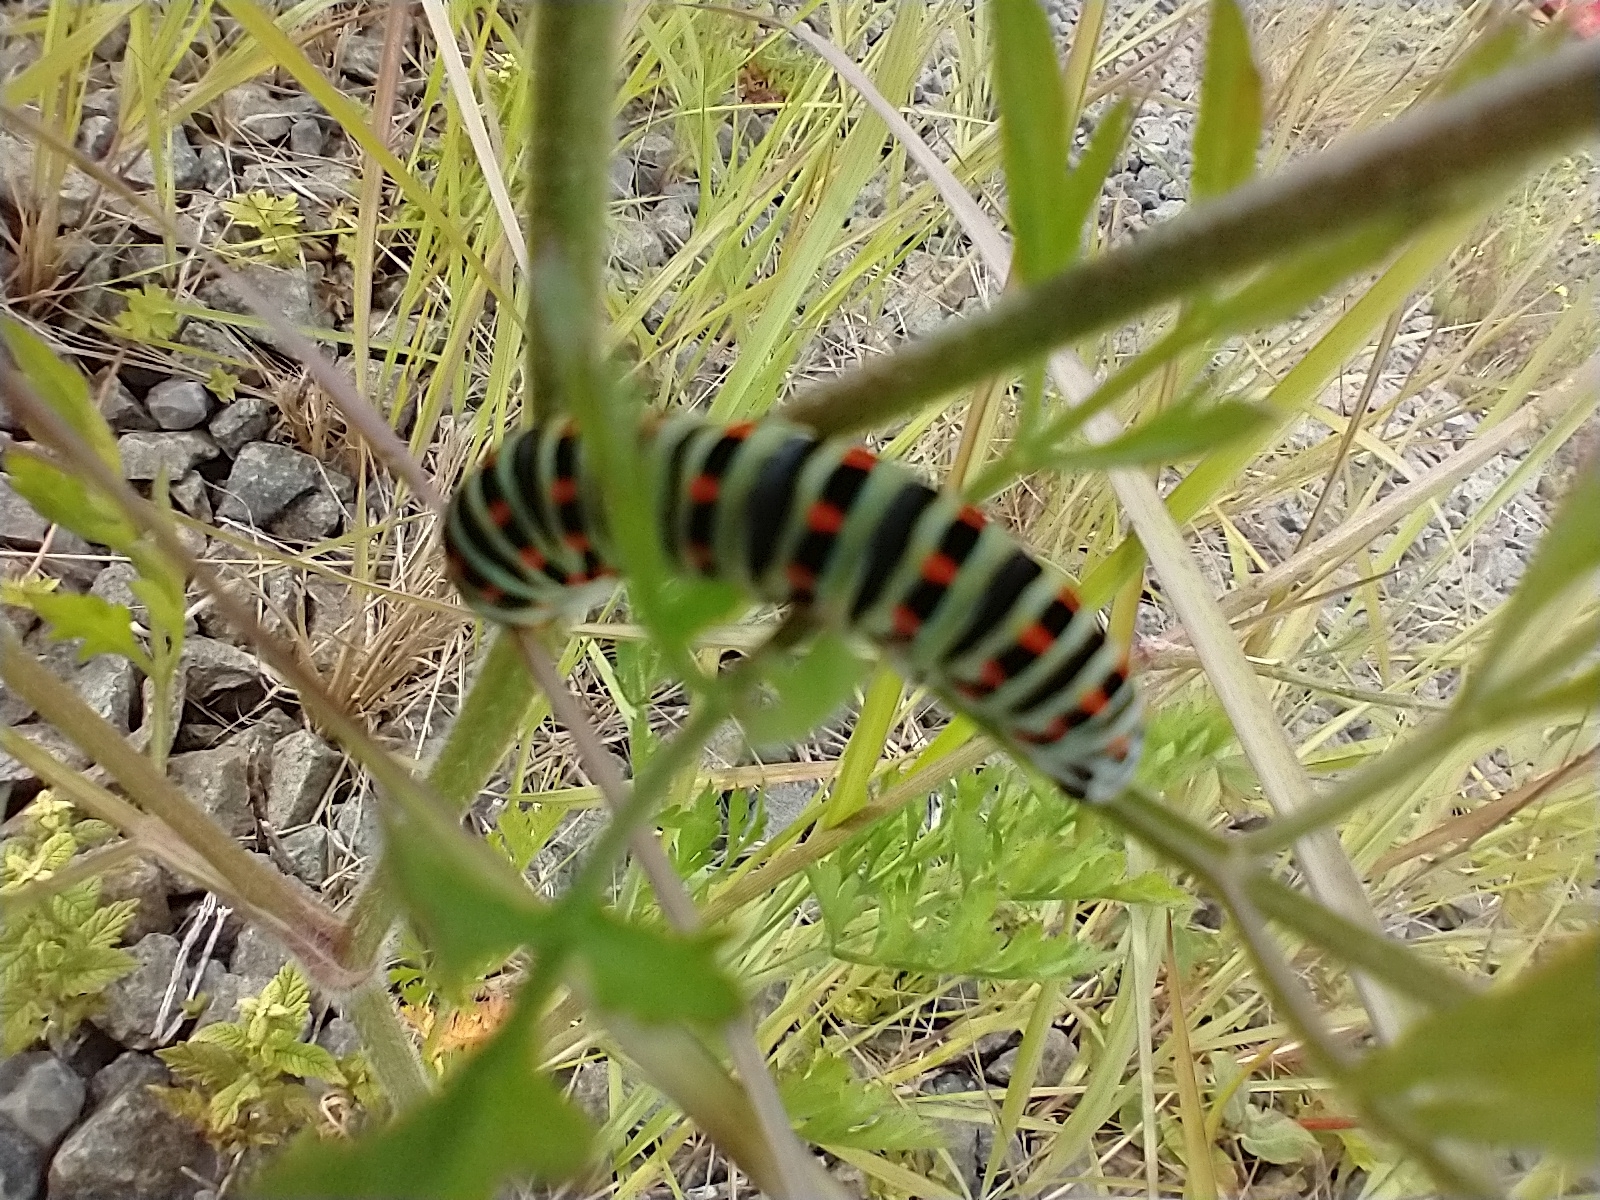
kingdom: Animalia
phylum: Arthropoda
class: Insecta
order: Lepidoptera
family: Papilionidae
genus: Papilio
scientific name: Papilio machaon
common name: Swallowtail
